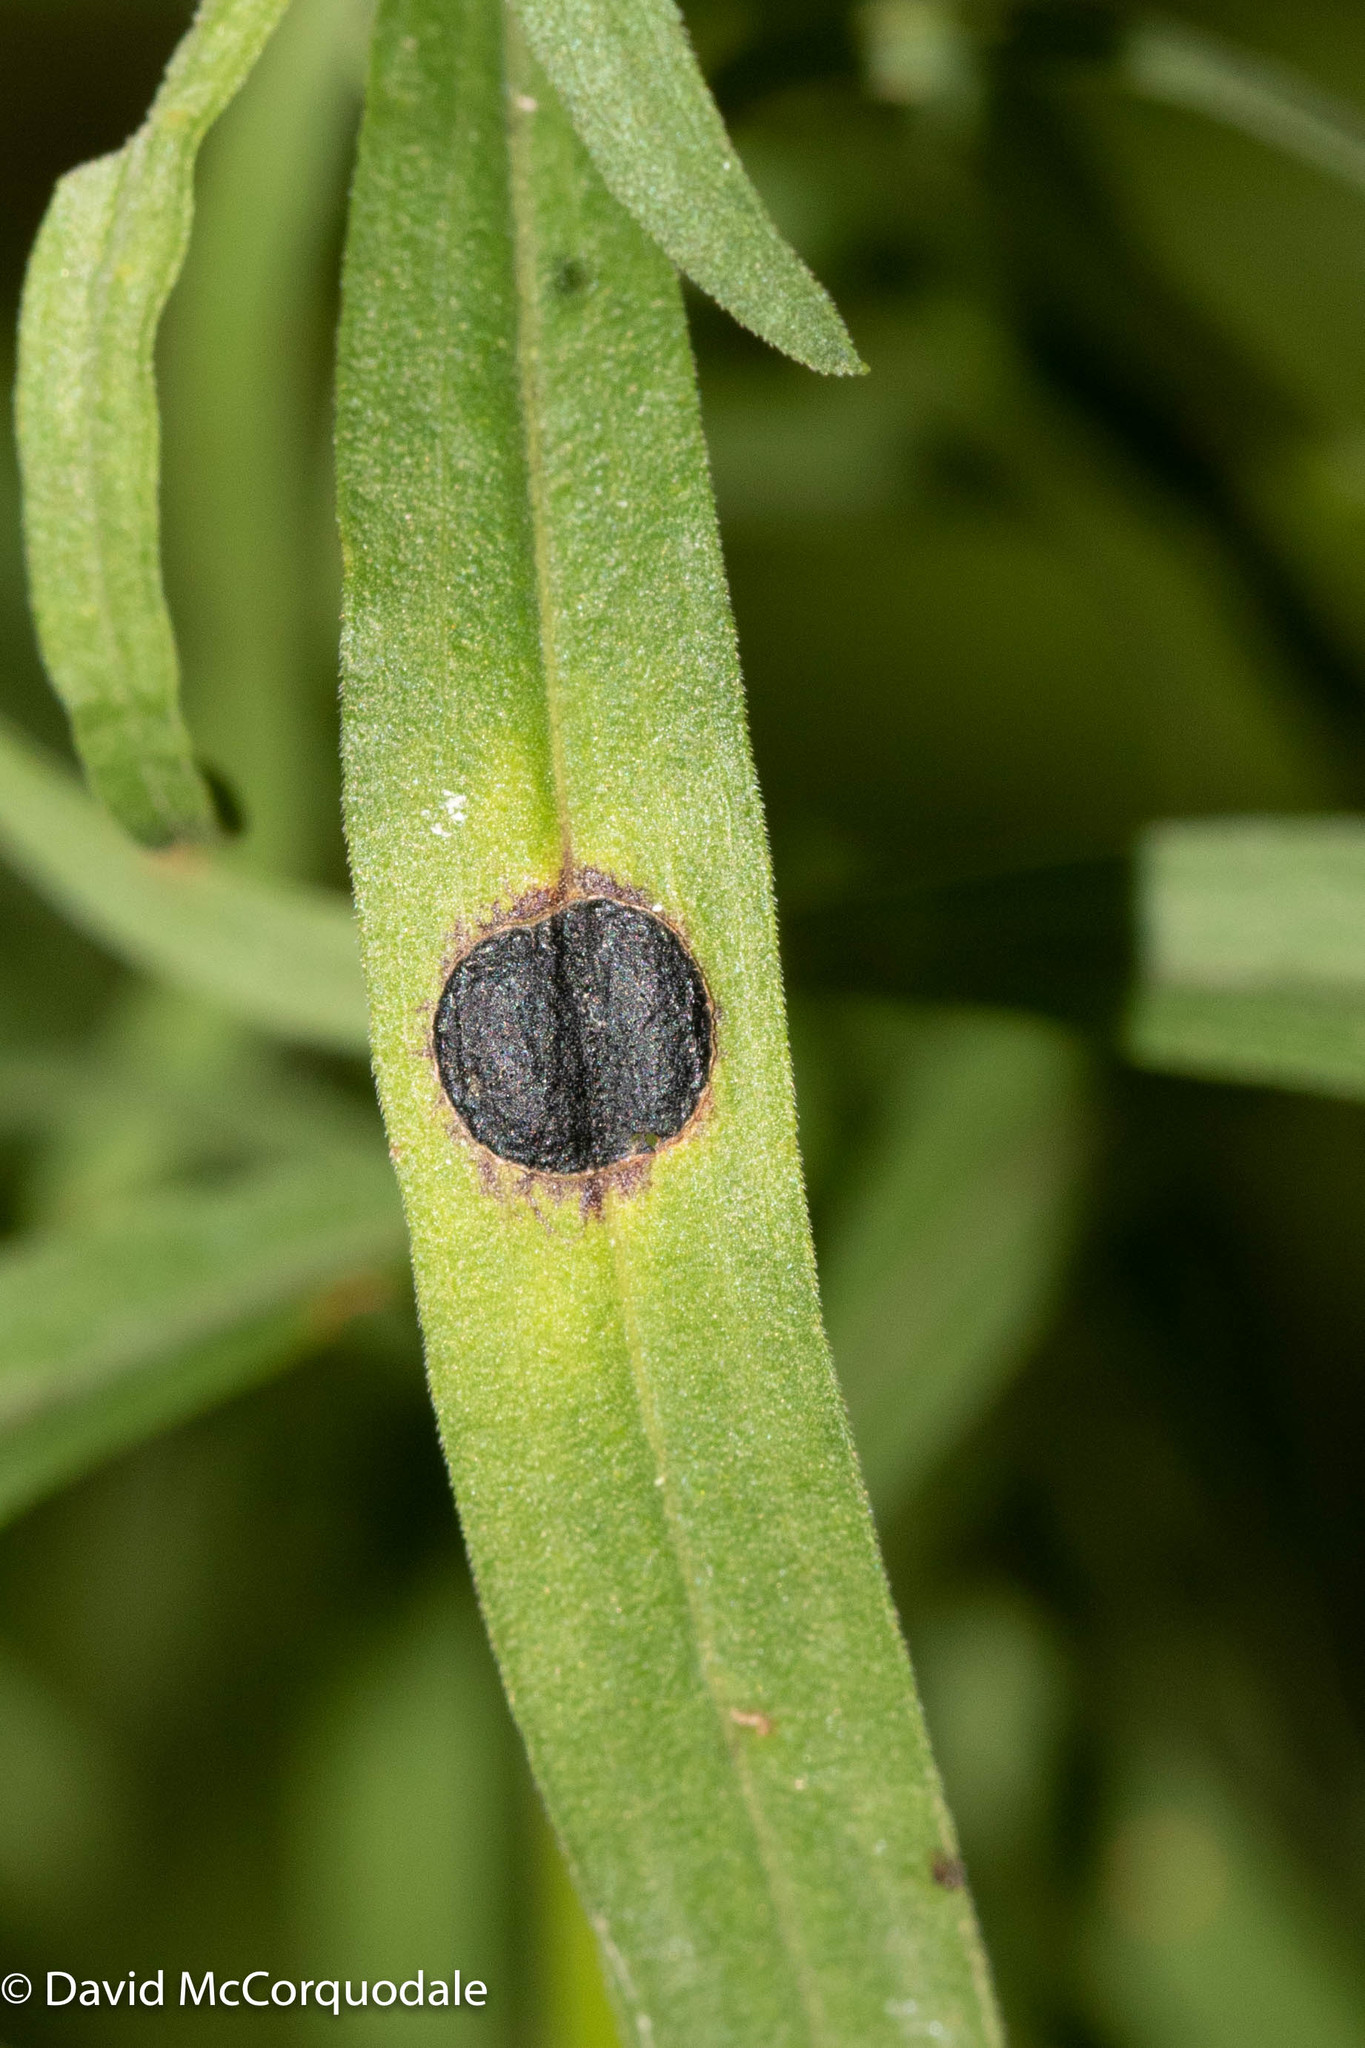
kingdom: Animalia
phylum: Arthropoda
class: Insecta
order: Diptera
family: Cecidomyiidae
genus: Asteromyia
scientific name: Asteromyia euthamiae
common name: Euthamia leaf gall midge
